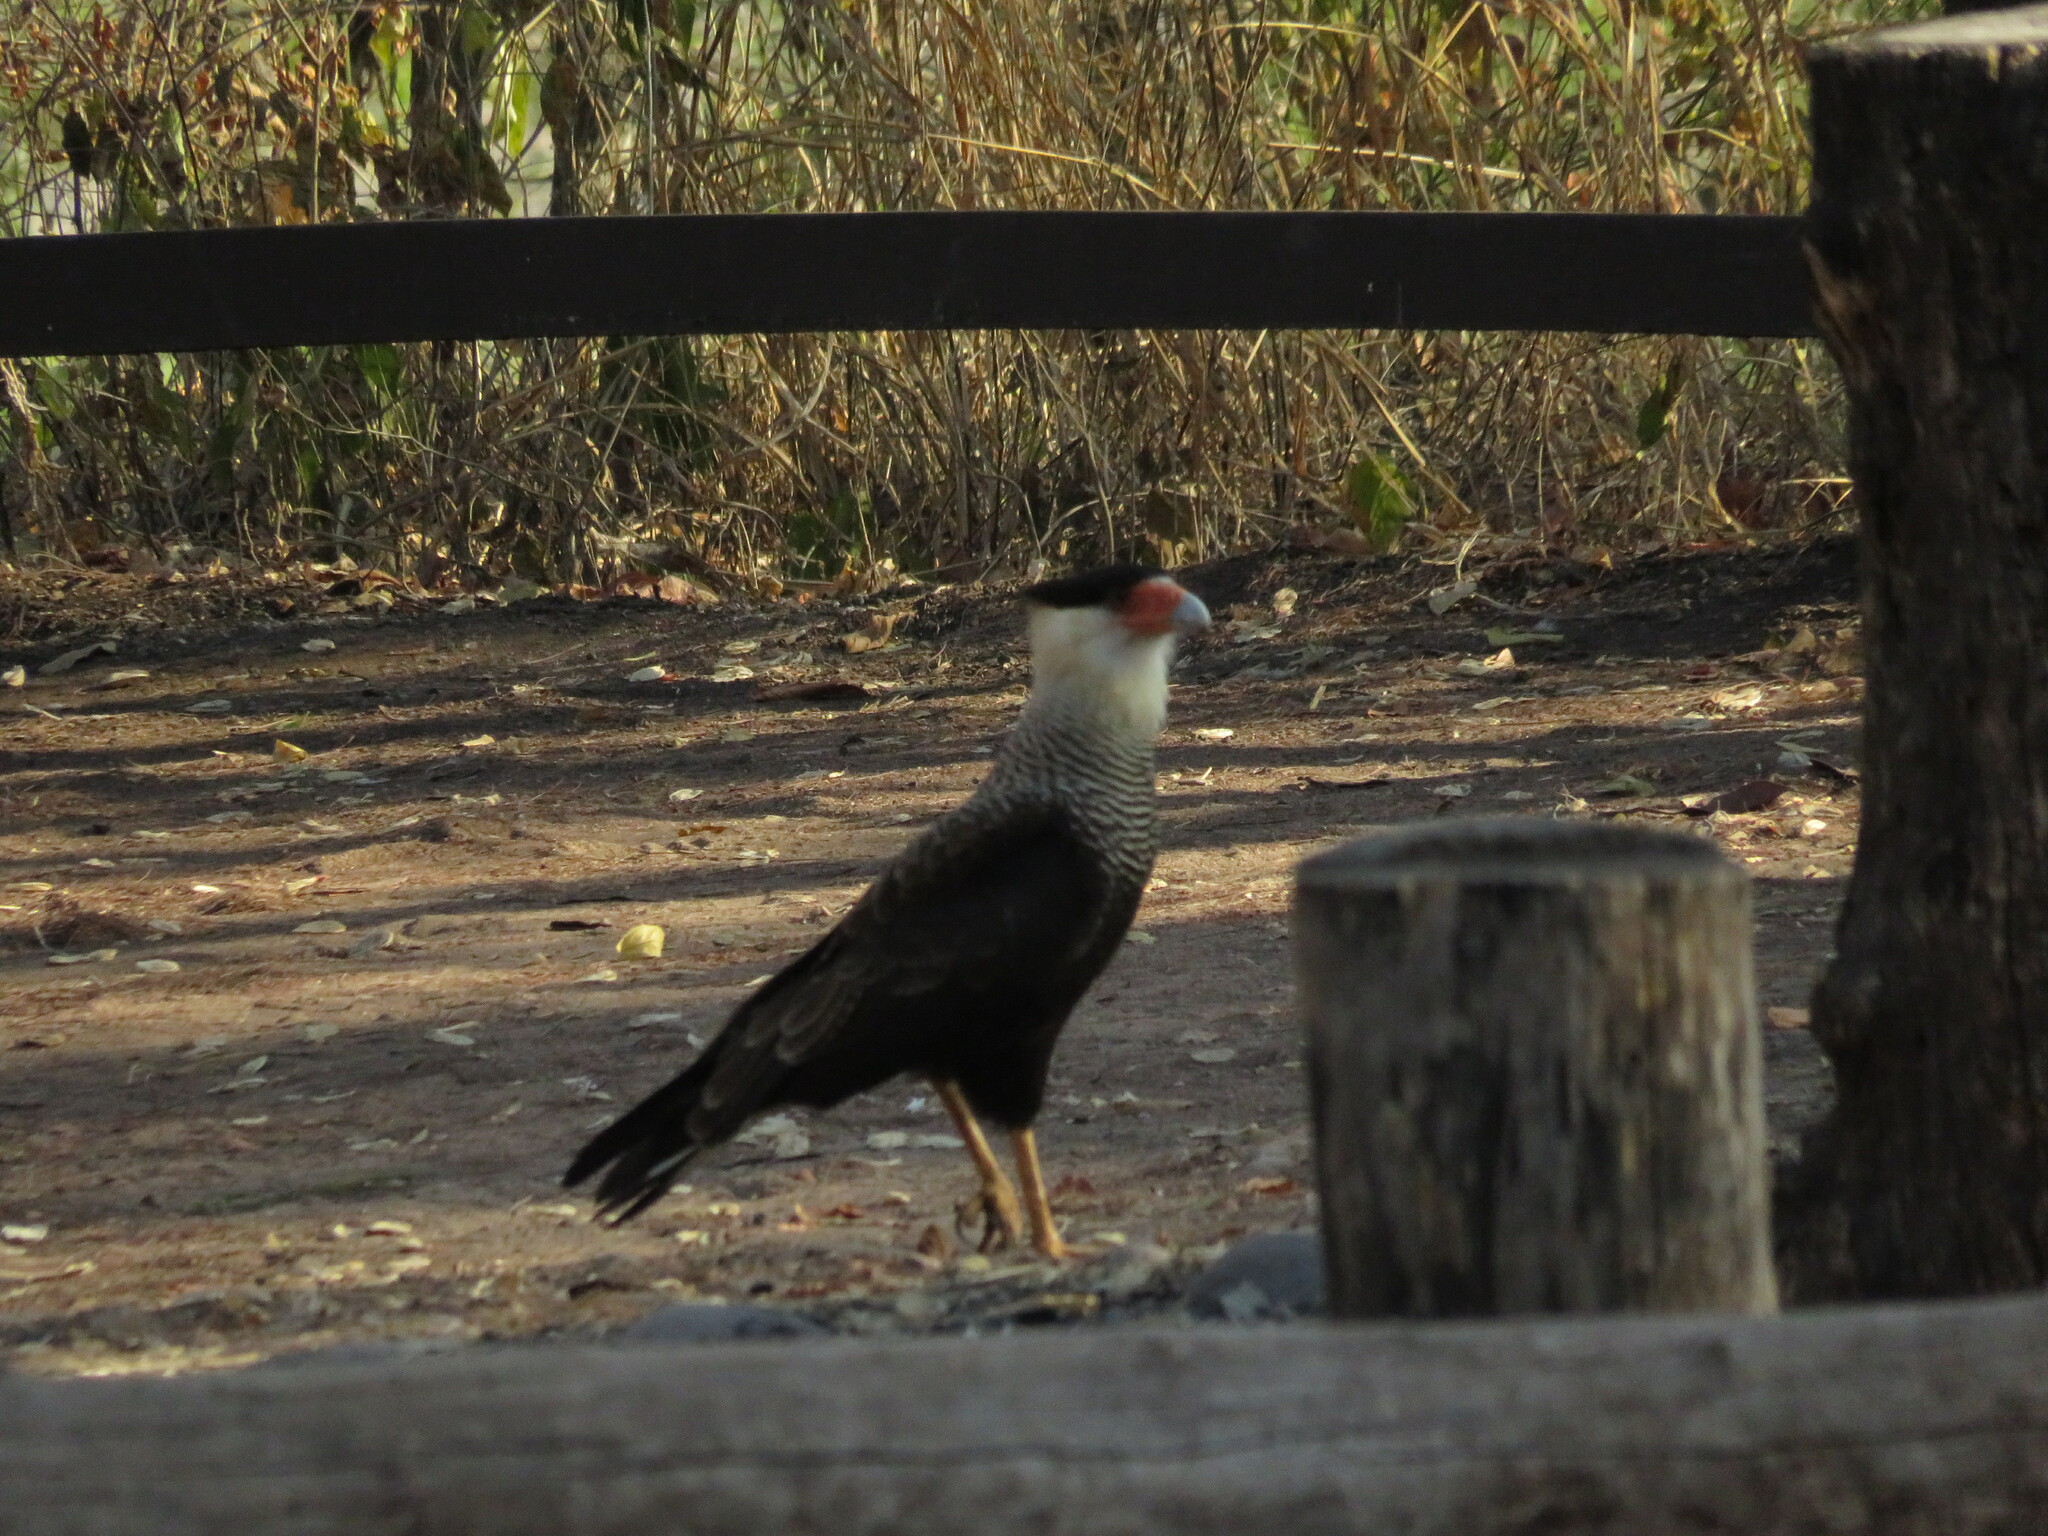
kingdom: Animalia
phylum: Chordata
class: Aves
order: Falconiformes
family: Falconidae
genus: Caracara
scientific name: Caracara plancus
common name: Southern caracara
